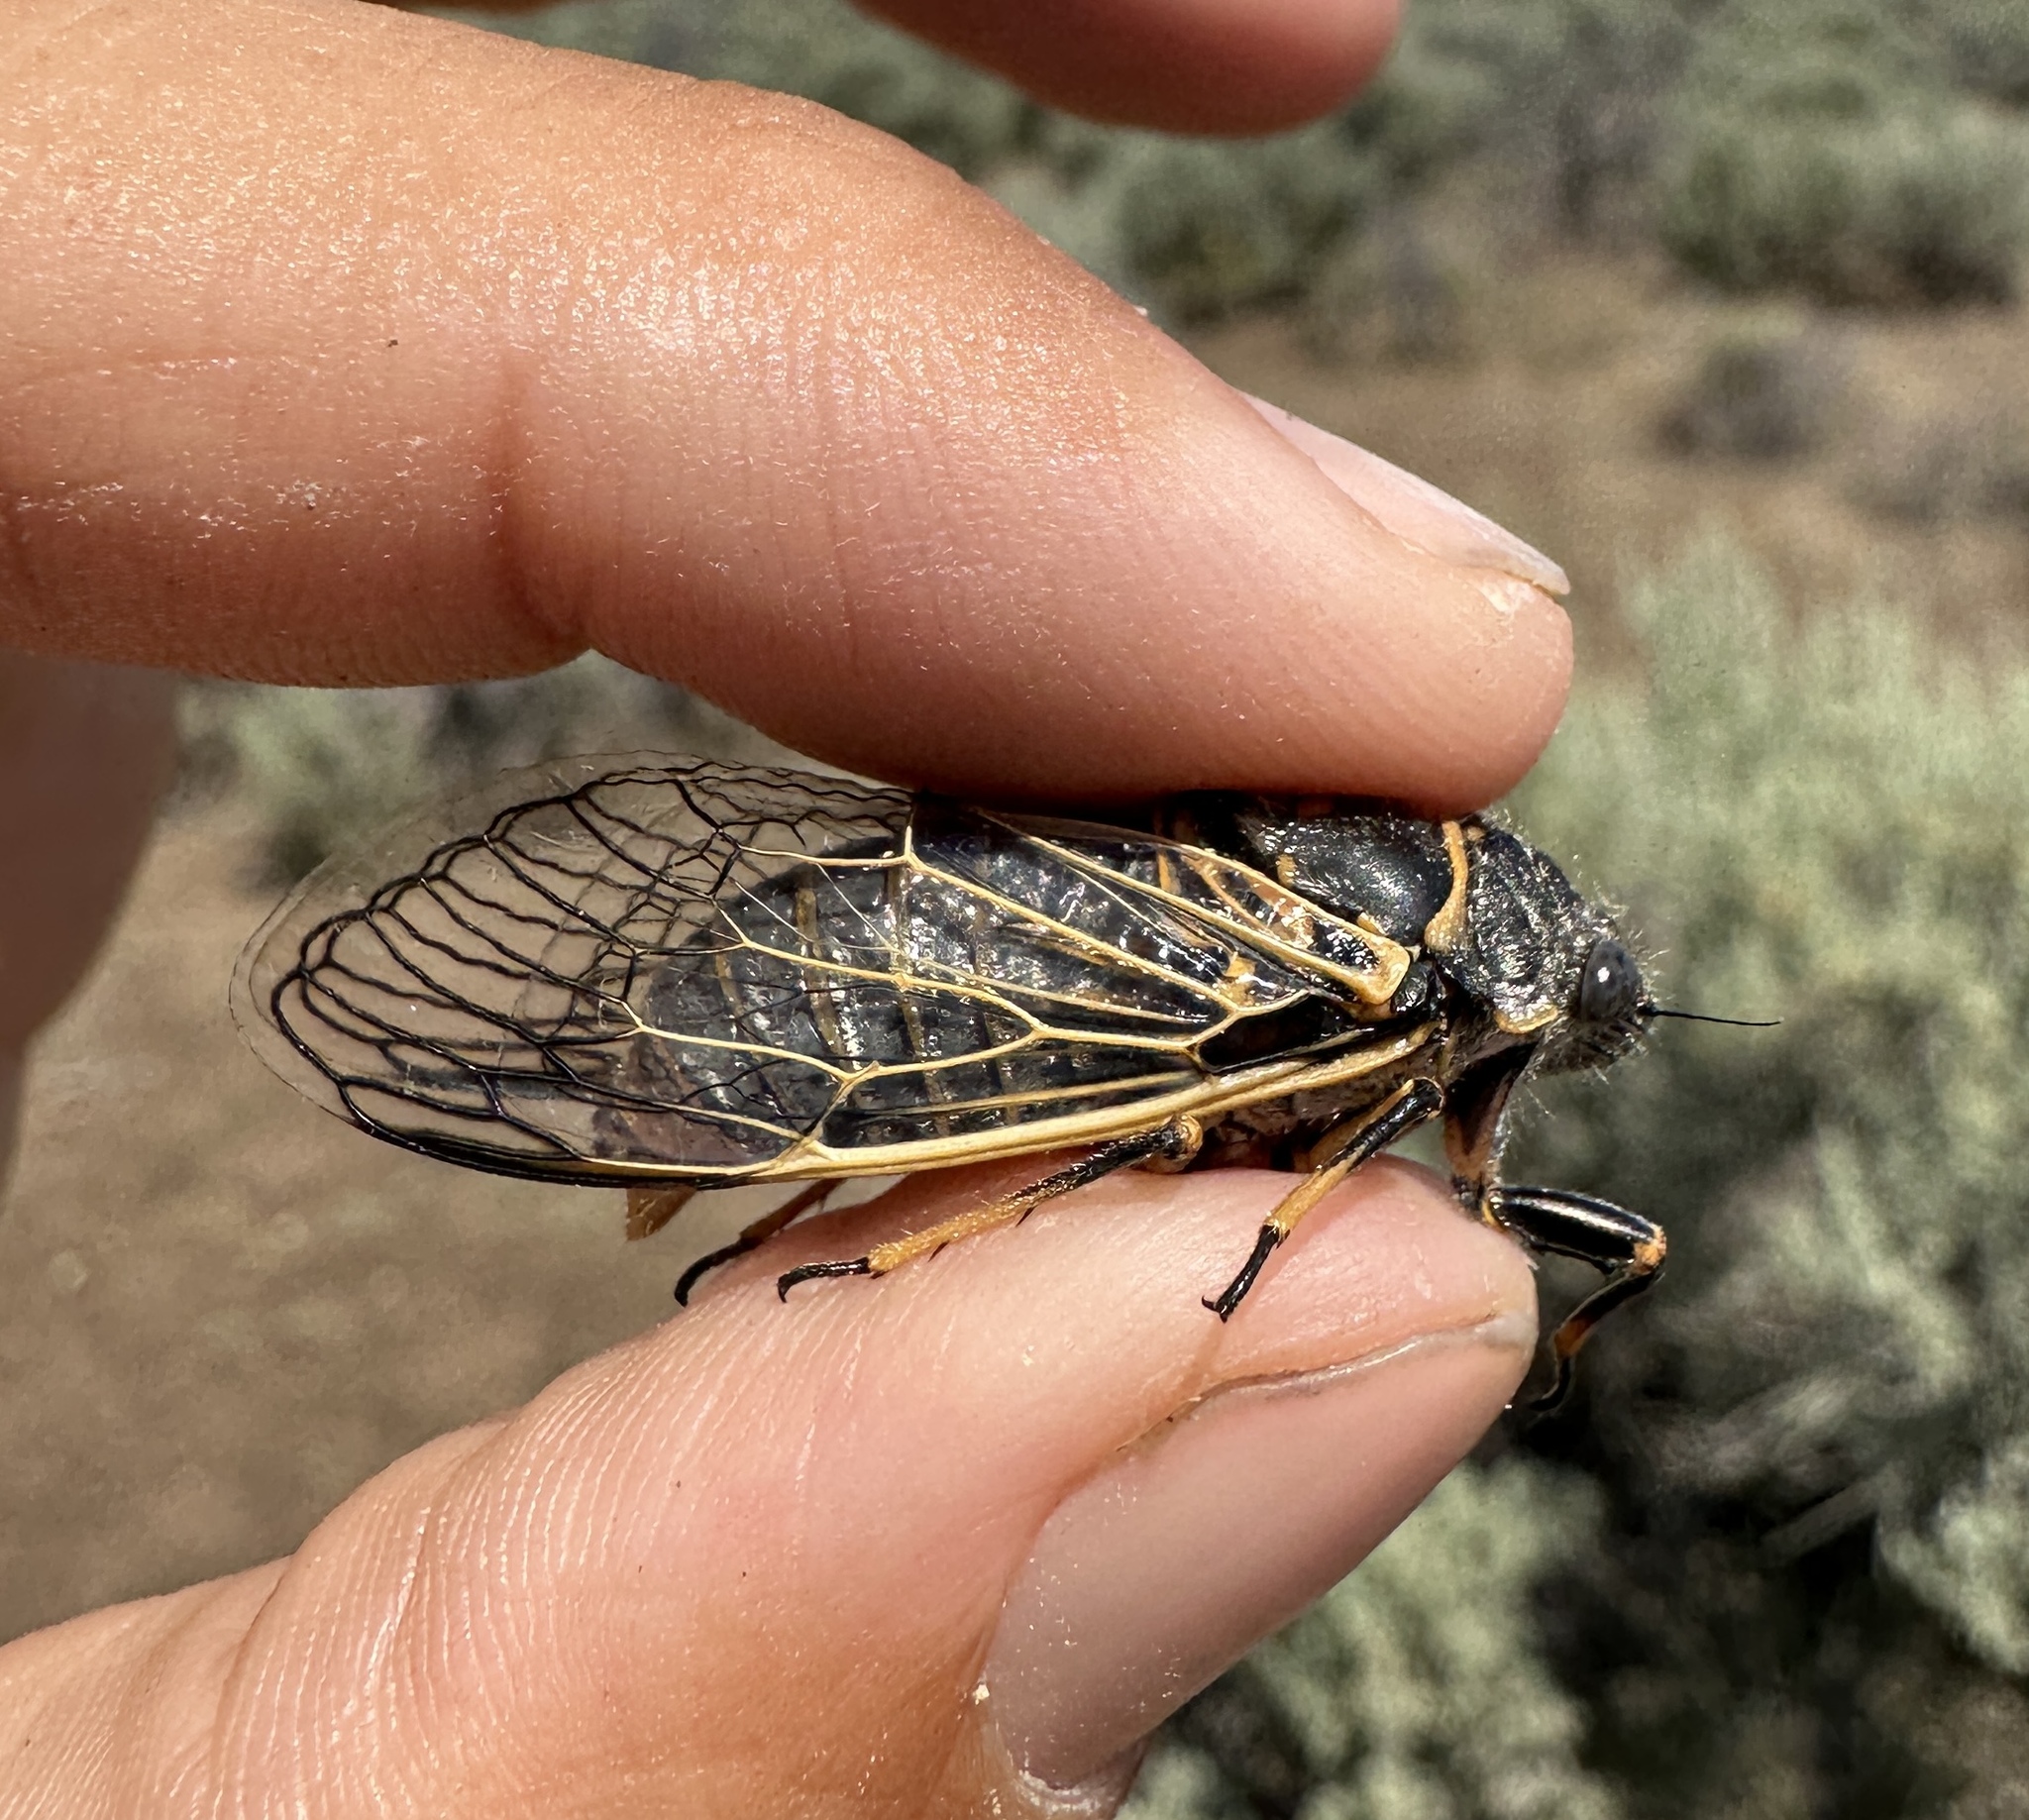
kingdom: Animalia
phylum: Arthropoda
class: Insecta
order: Hemiptera
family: Cicadidae
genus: Okanagana
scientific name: Okanagana gibbera
